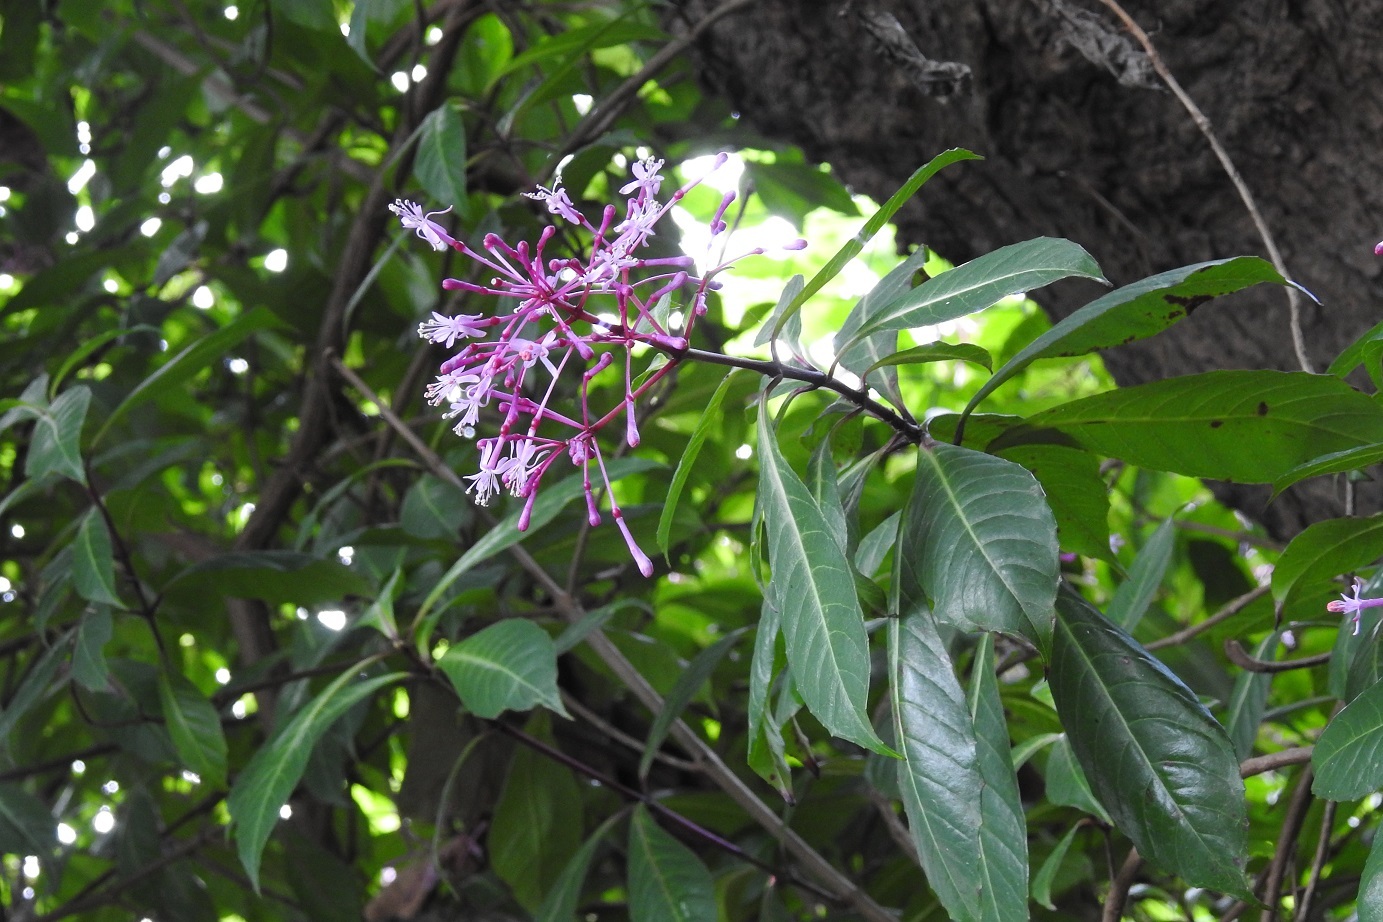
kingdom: Plantae
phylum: Tracheophyta
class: Magnoliopsida
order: Myrtales
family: Onagraceae
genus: Fuchsia
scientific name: Fuchsia paniculata
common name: Shrubby fuchsia
